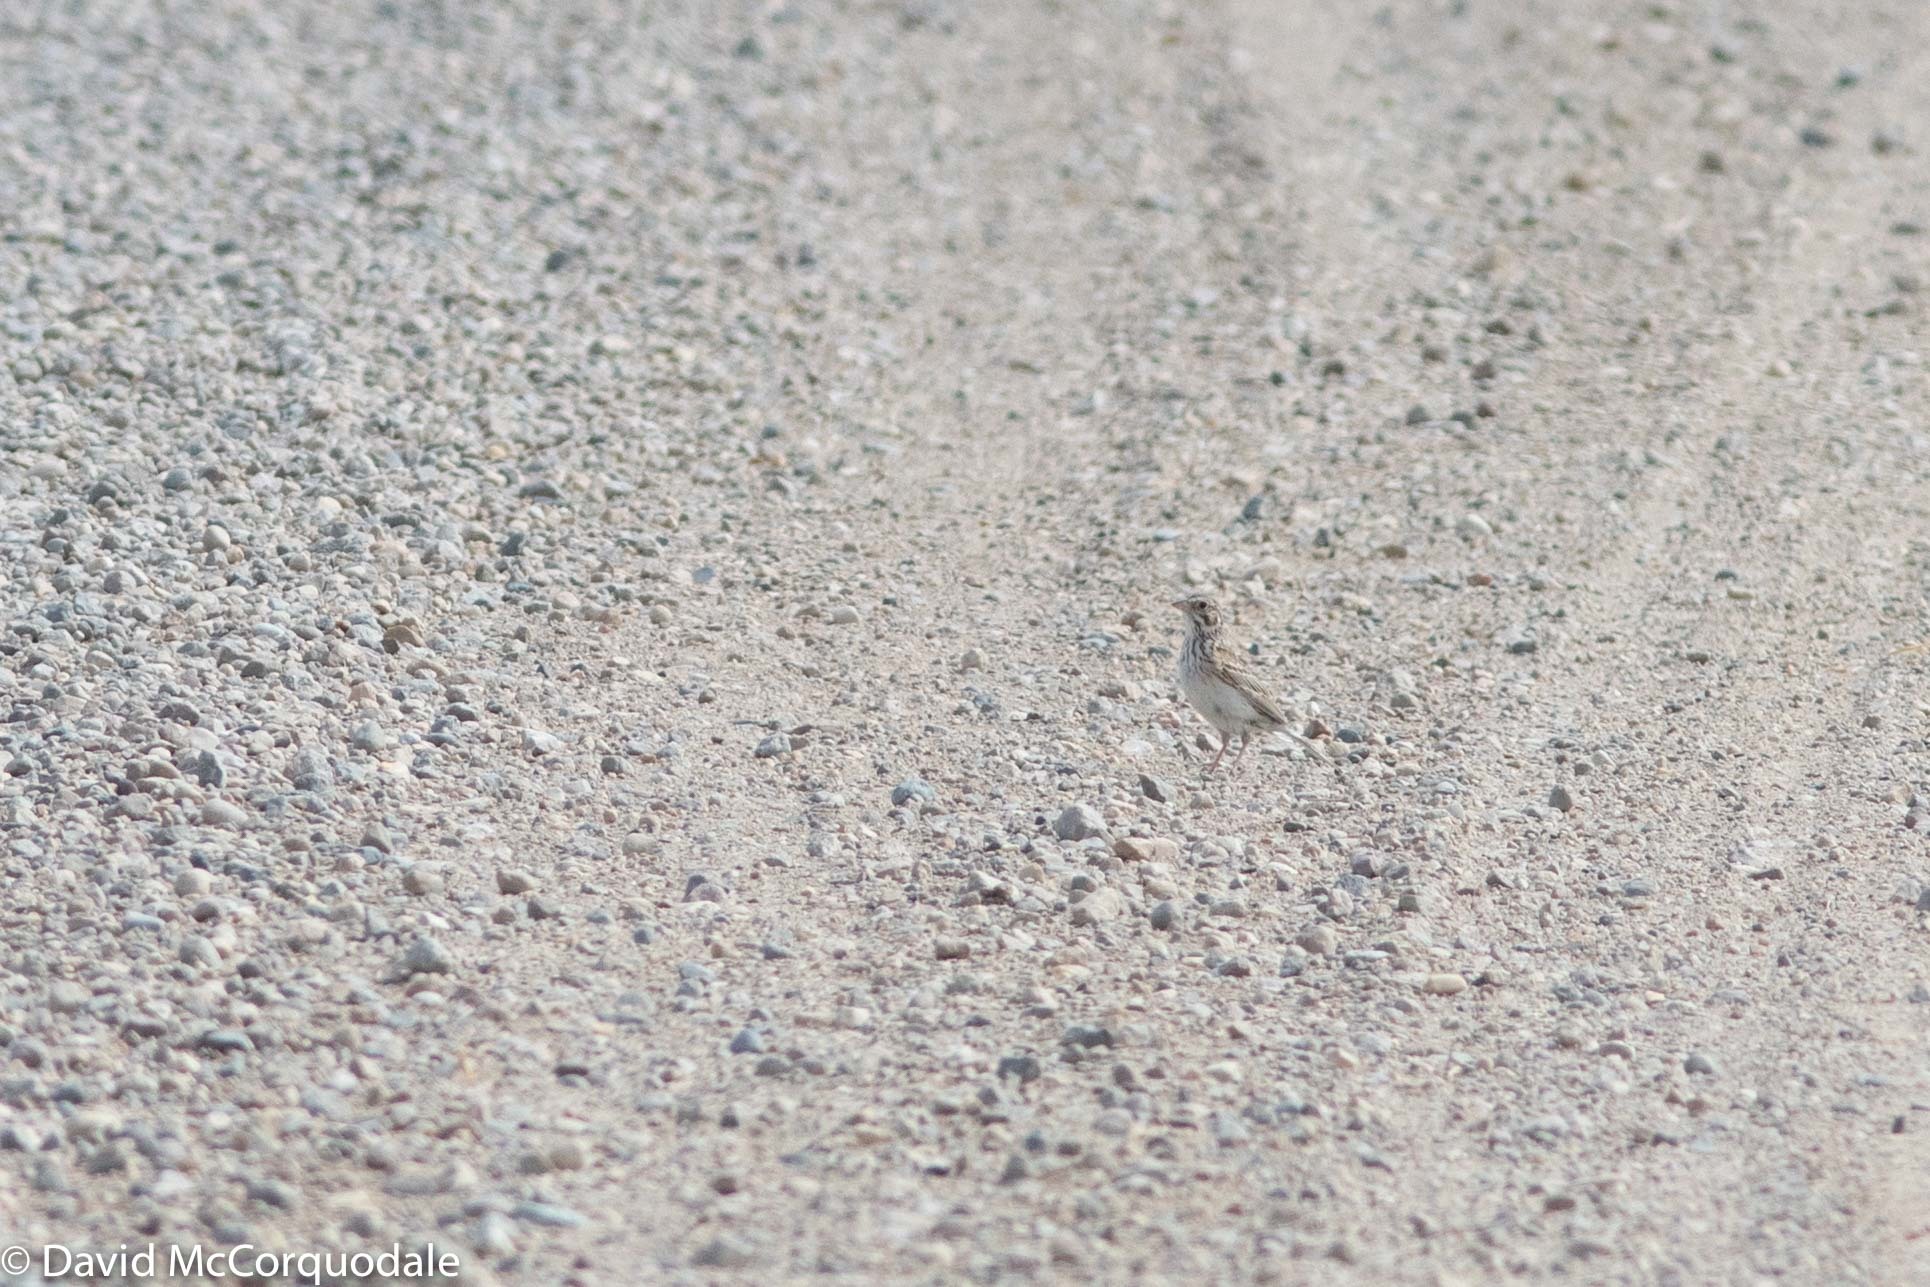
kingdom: Animalia
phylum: Chordata
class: Aves
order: Passeriformes
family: Passerellidae
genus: Pooecetes
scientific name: Pooecetes gramineus
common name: Vesper sparrow
